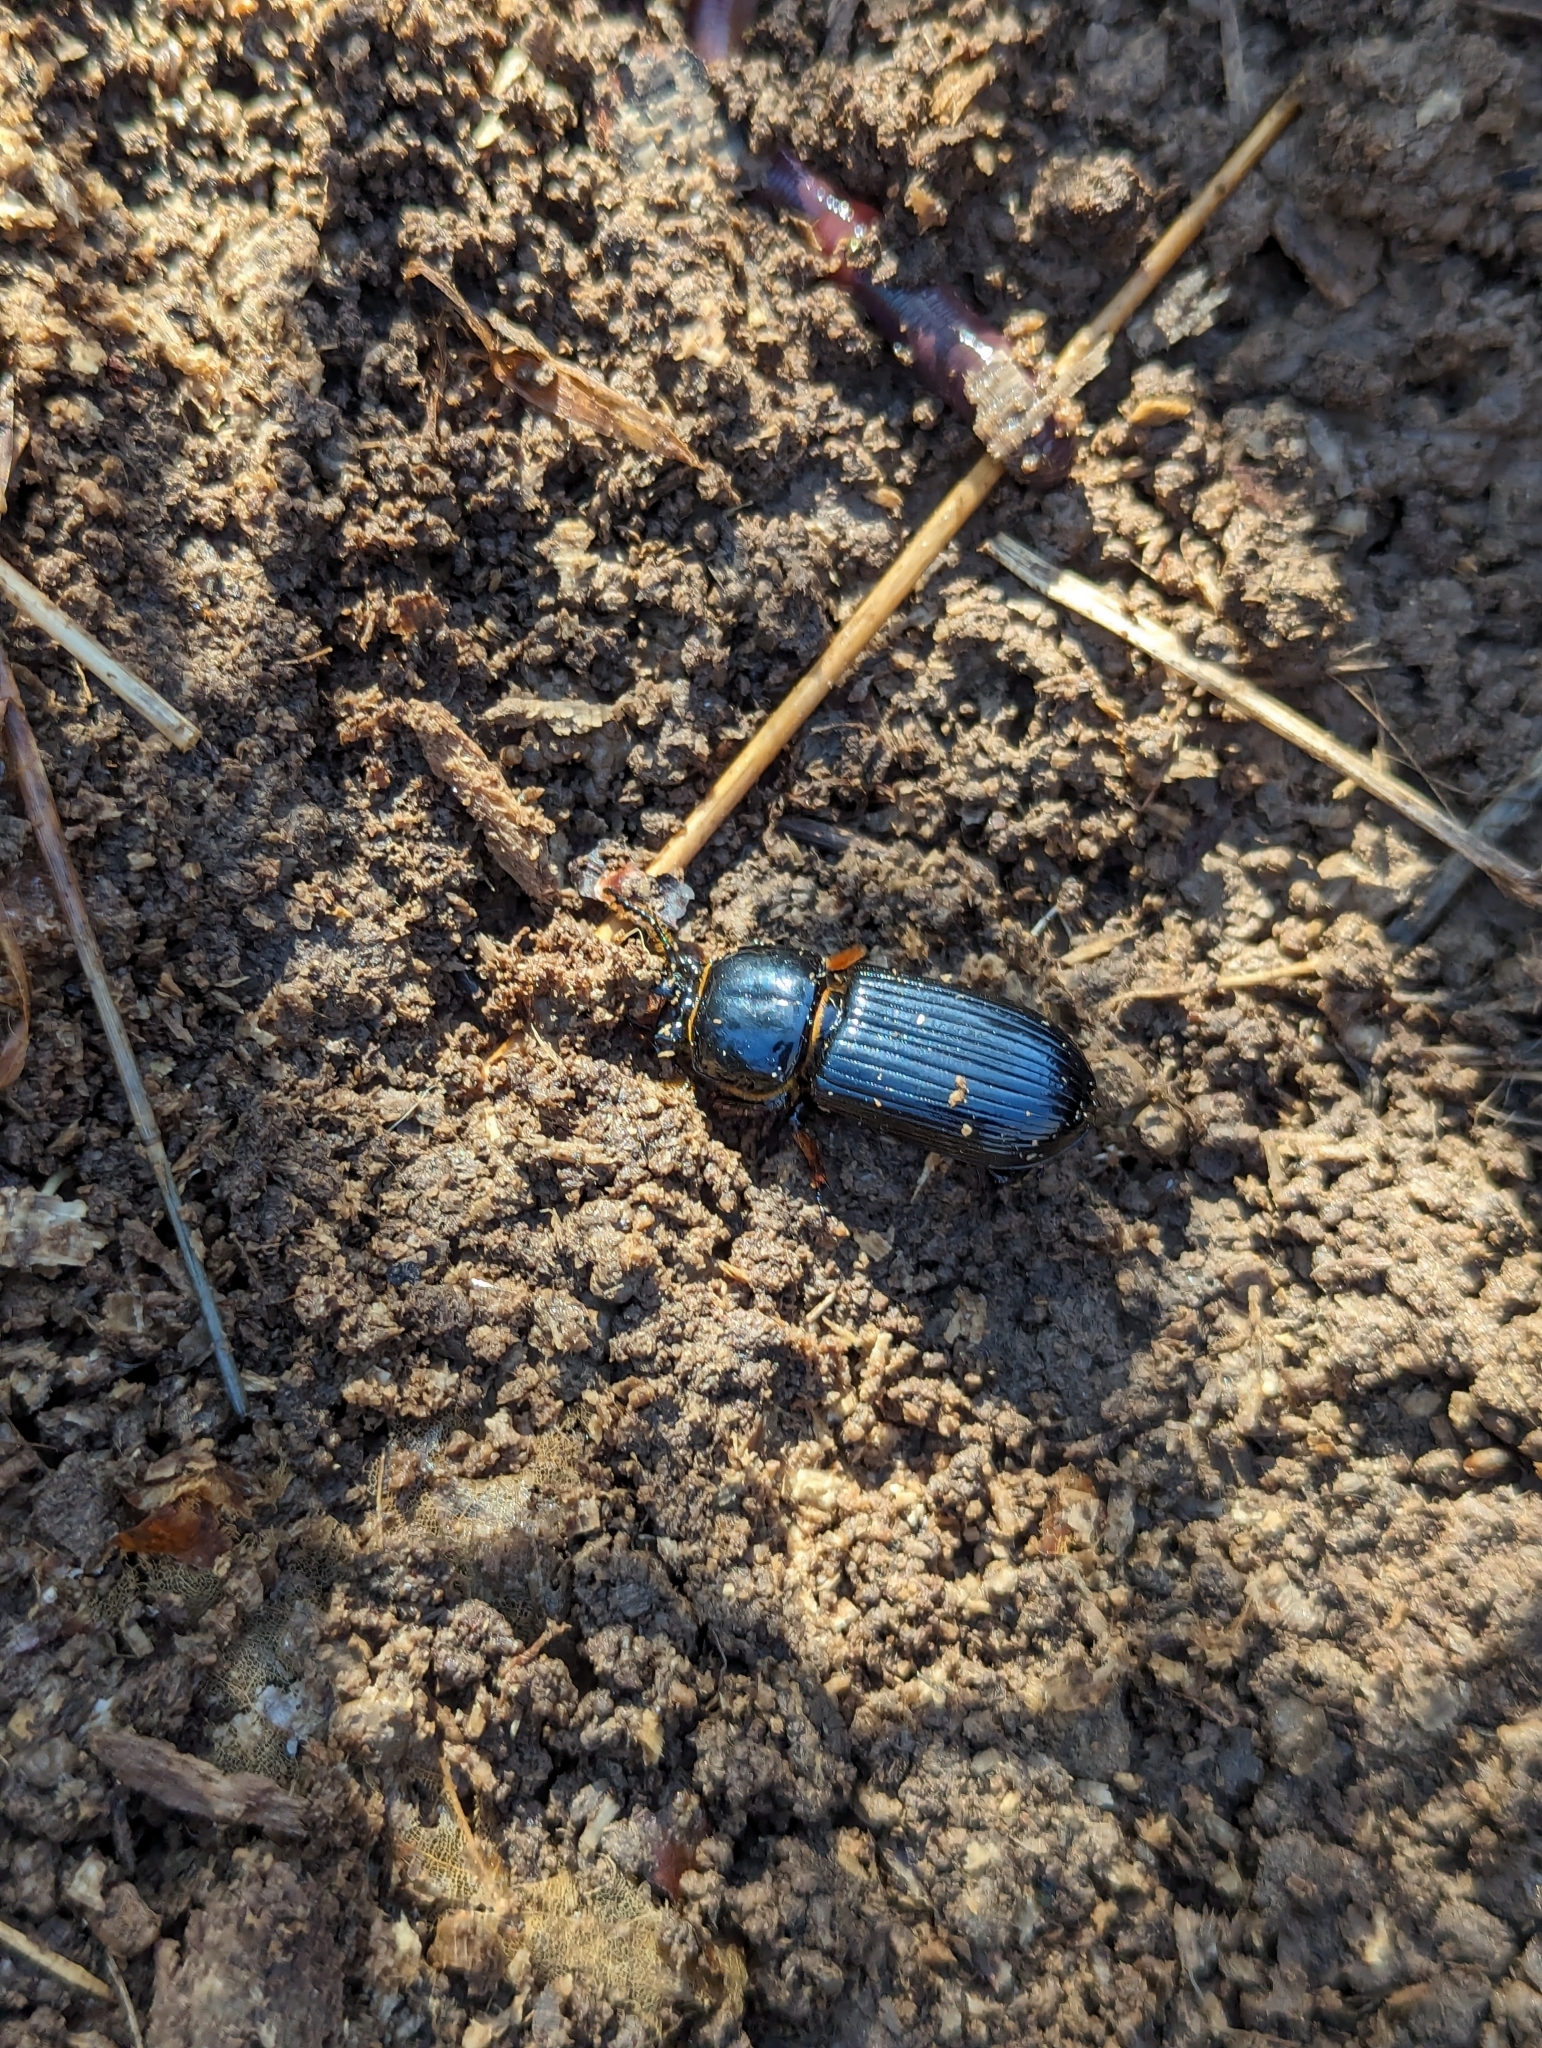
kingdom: Animalia
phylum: Arthropoda
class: Insecta
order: Coleoptera
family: Passalidae
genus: Odontotaenius
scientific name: Odontotaenius disjunctus
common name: Patent leather beetle
